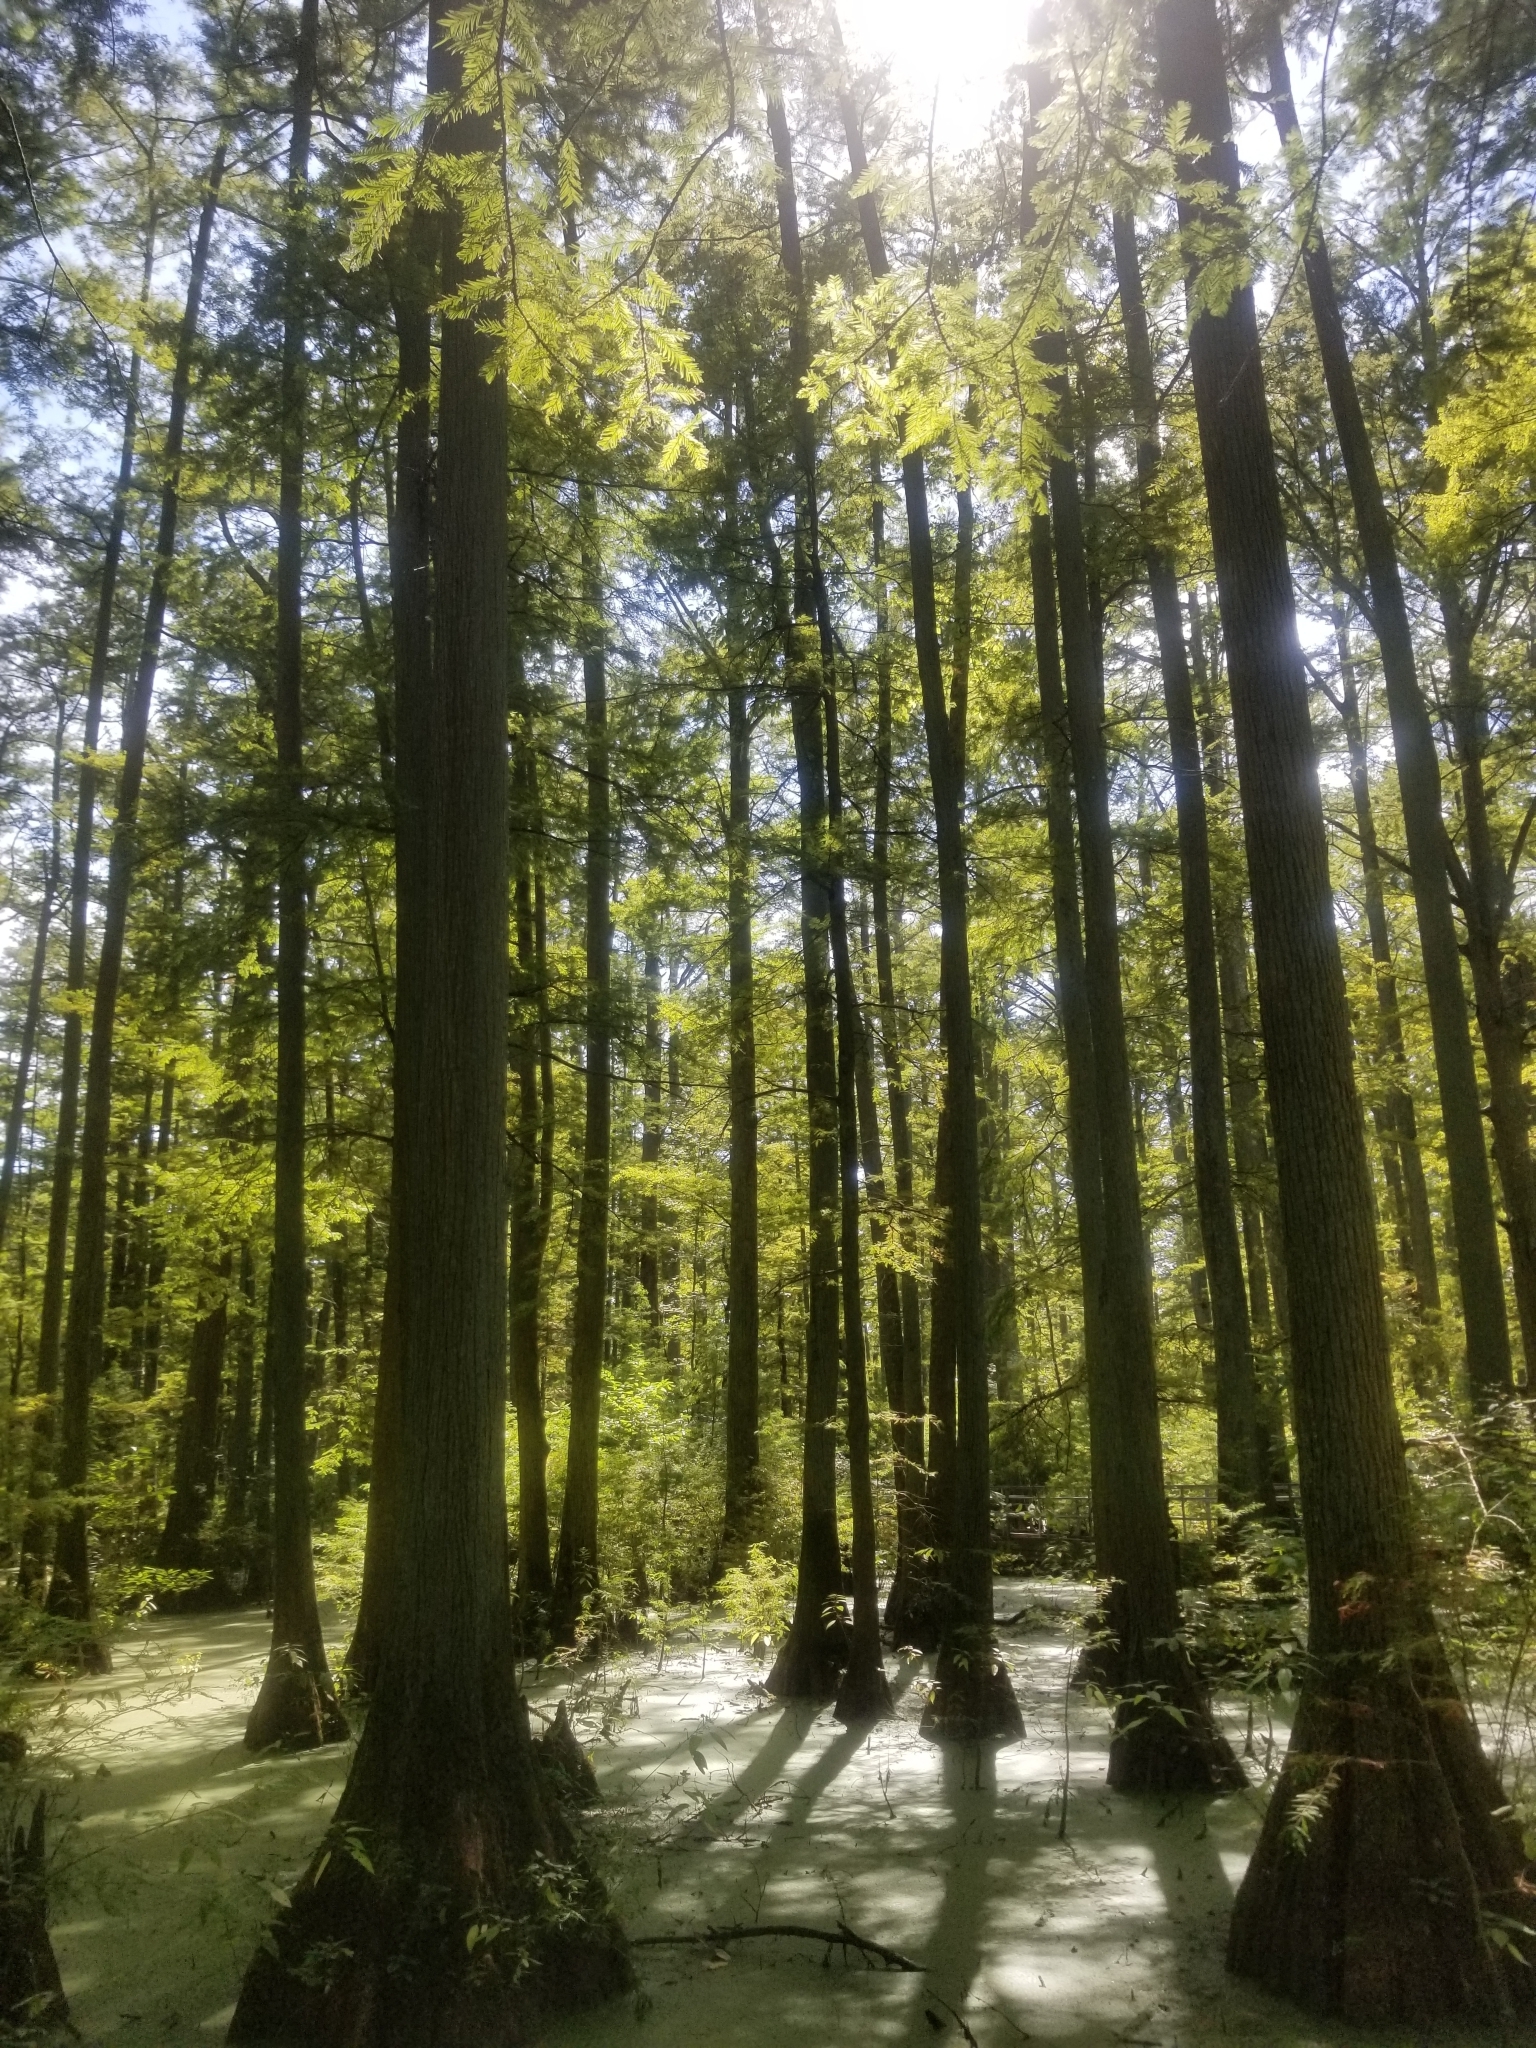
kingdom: Plantae
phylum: Tracheophyta
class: Pinopsida
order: Pinales
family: Cupressaceae
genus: Taxodium
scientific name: Taxodium distichum
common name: Bald cypress
